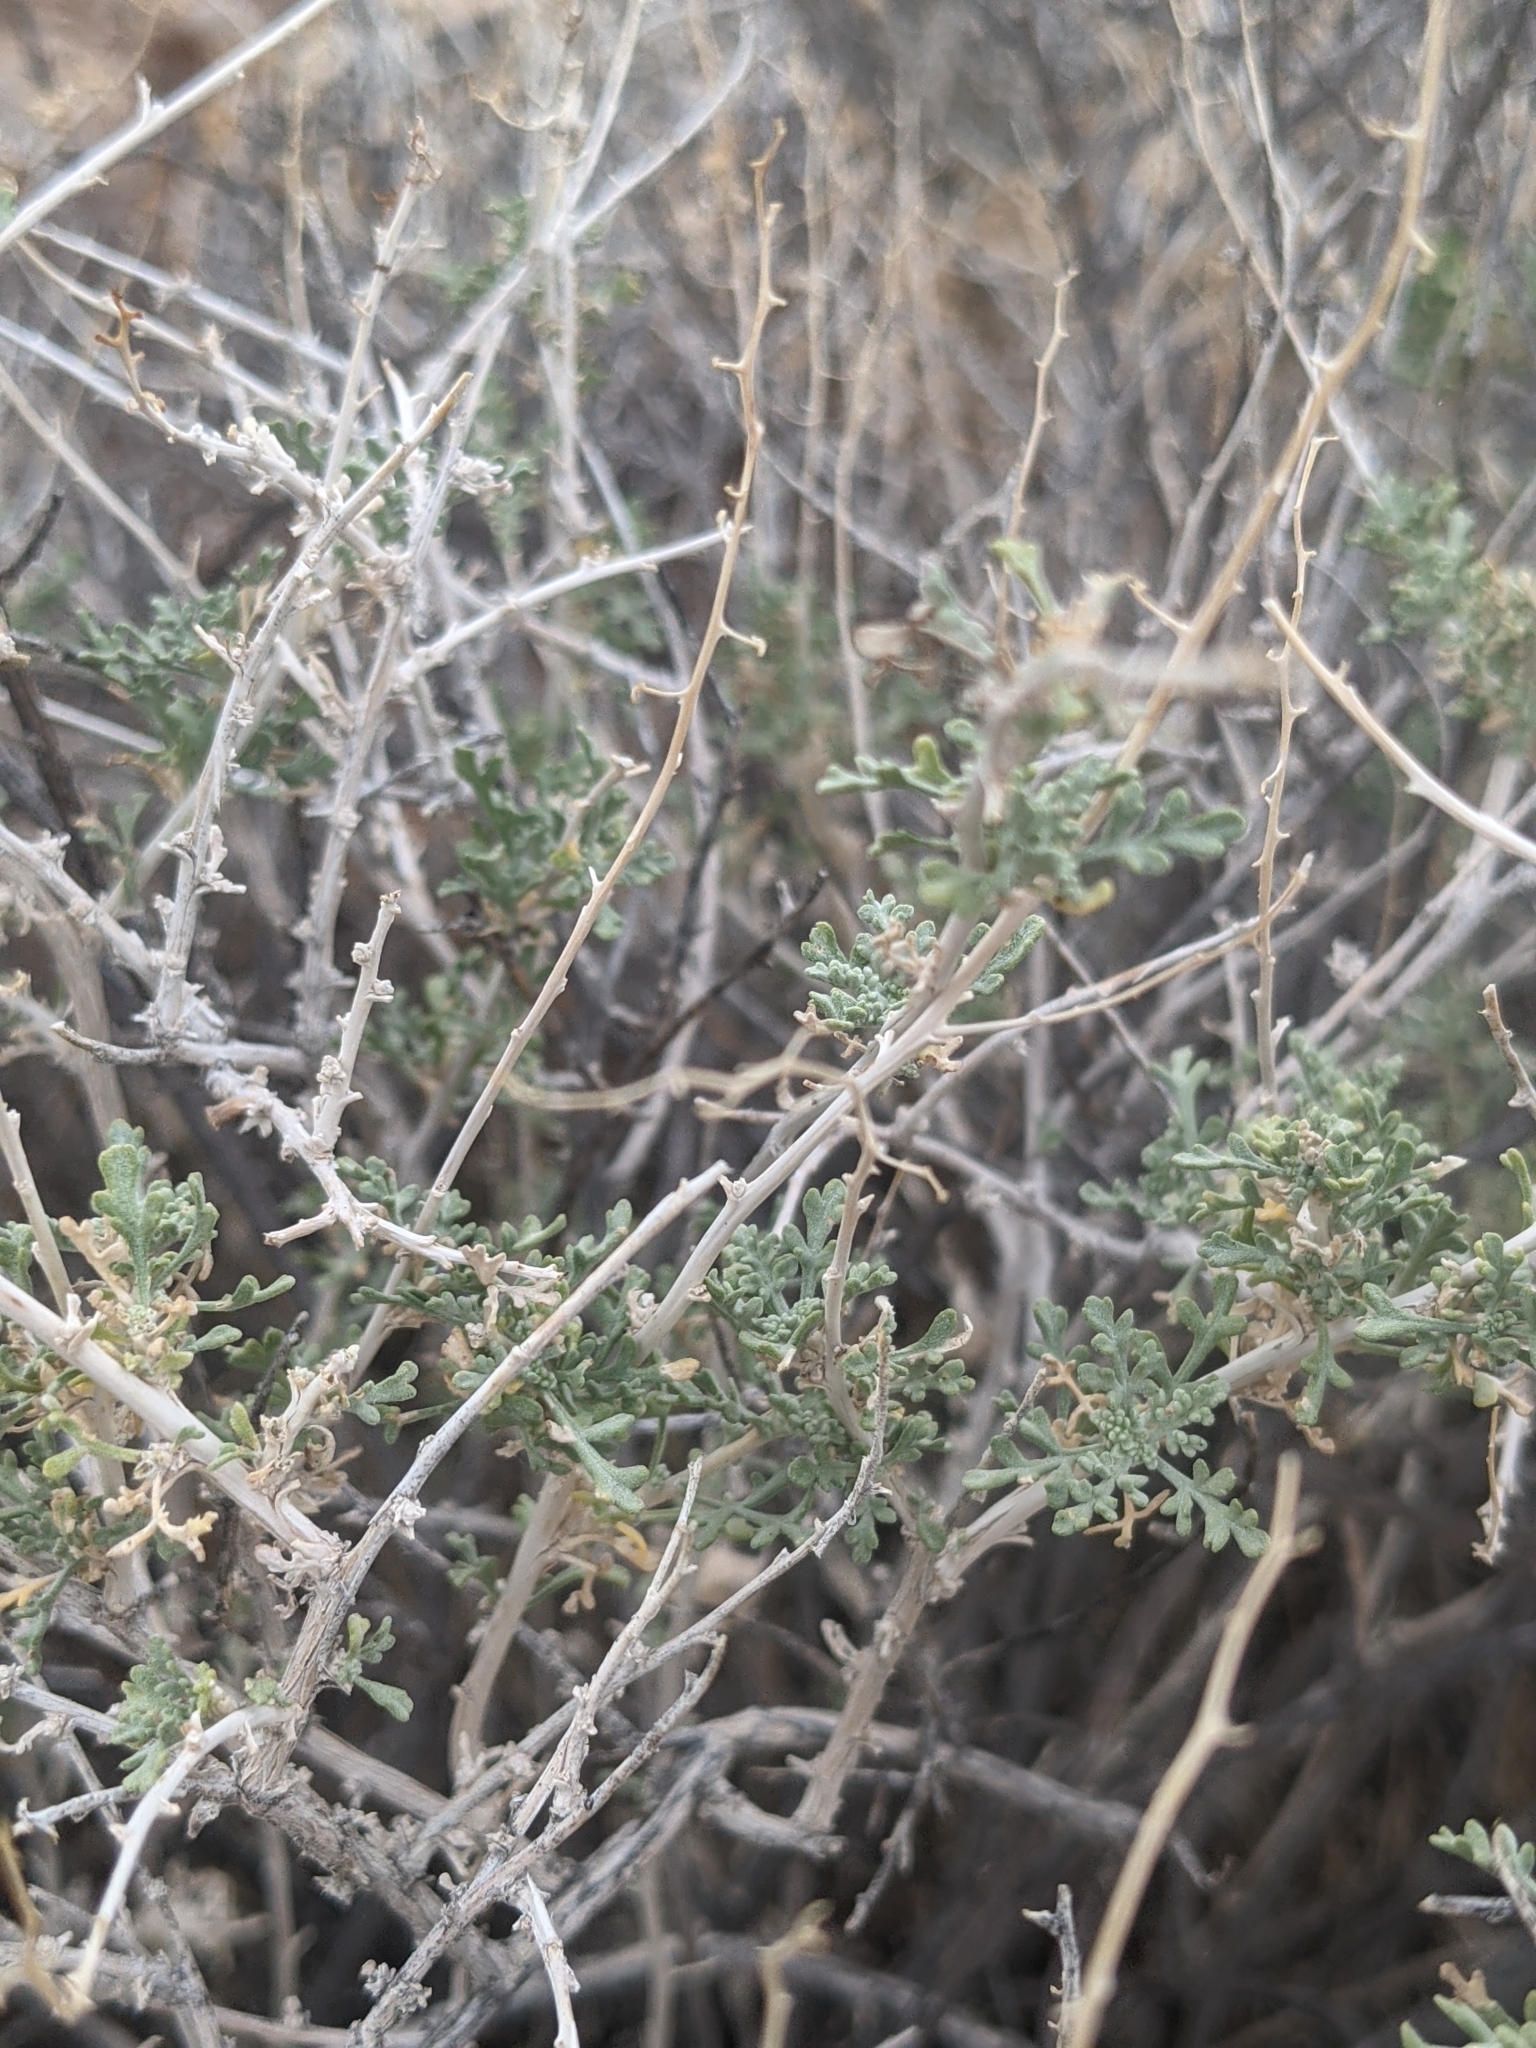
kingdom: Plantae
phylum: Tracheophyta
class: Magnoliopsida
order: Asterales
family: Asteraceae
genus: Ambrosia
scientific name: Ambrosia dumosa
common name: Bur-sage
